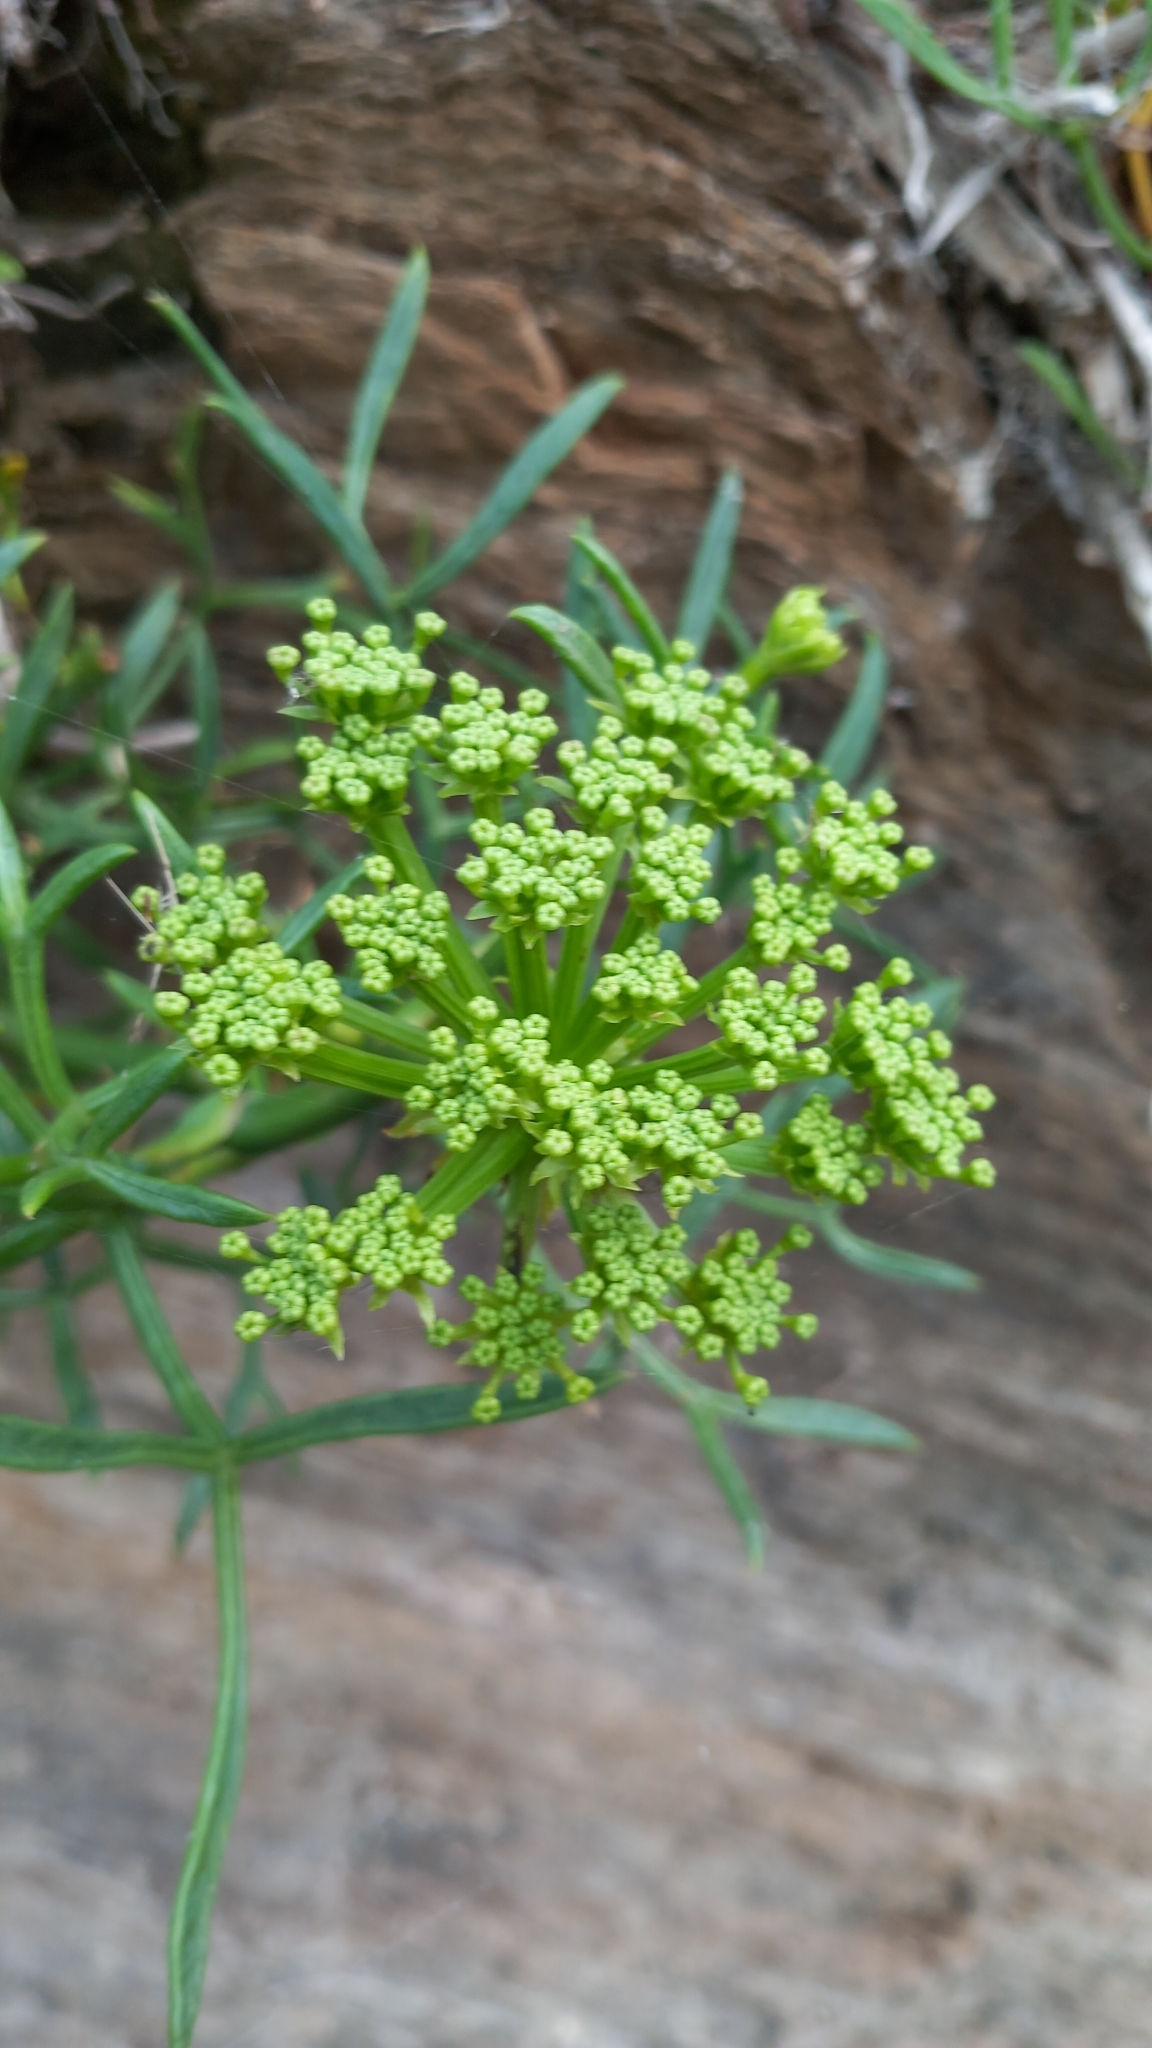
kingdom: Plantae
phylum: Tracheophyta
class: Magnoliopsida
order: Apiales
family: Apiaceae
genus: Crithmum
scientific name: Crithmum maritimum
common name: Rock samphire
